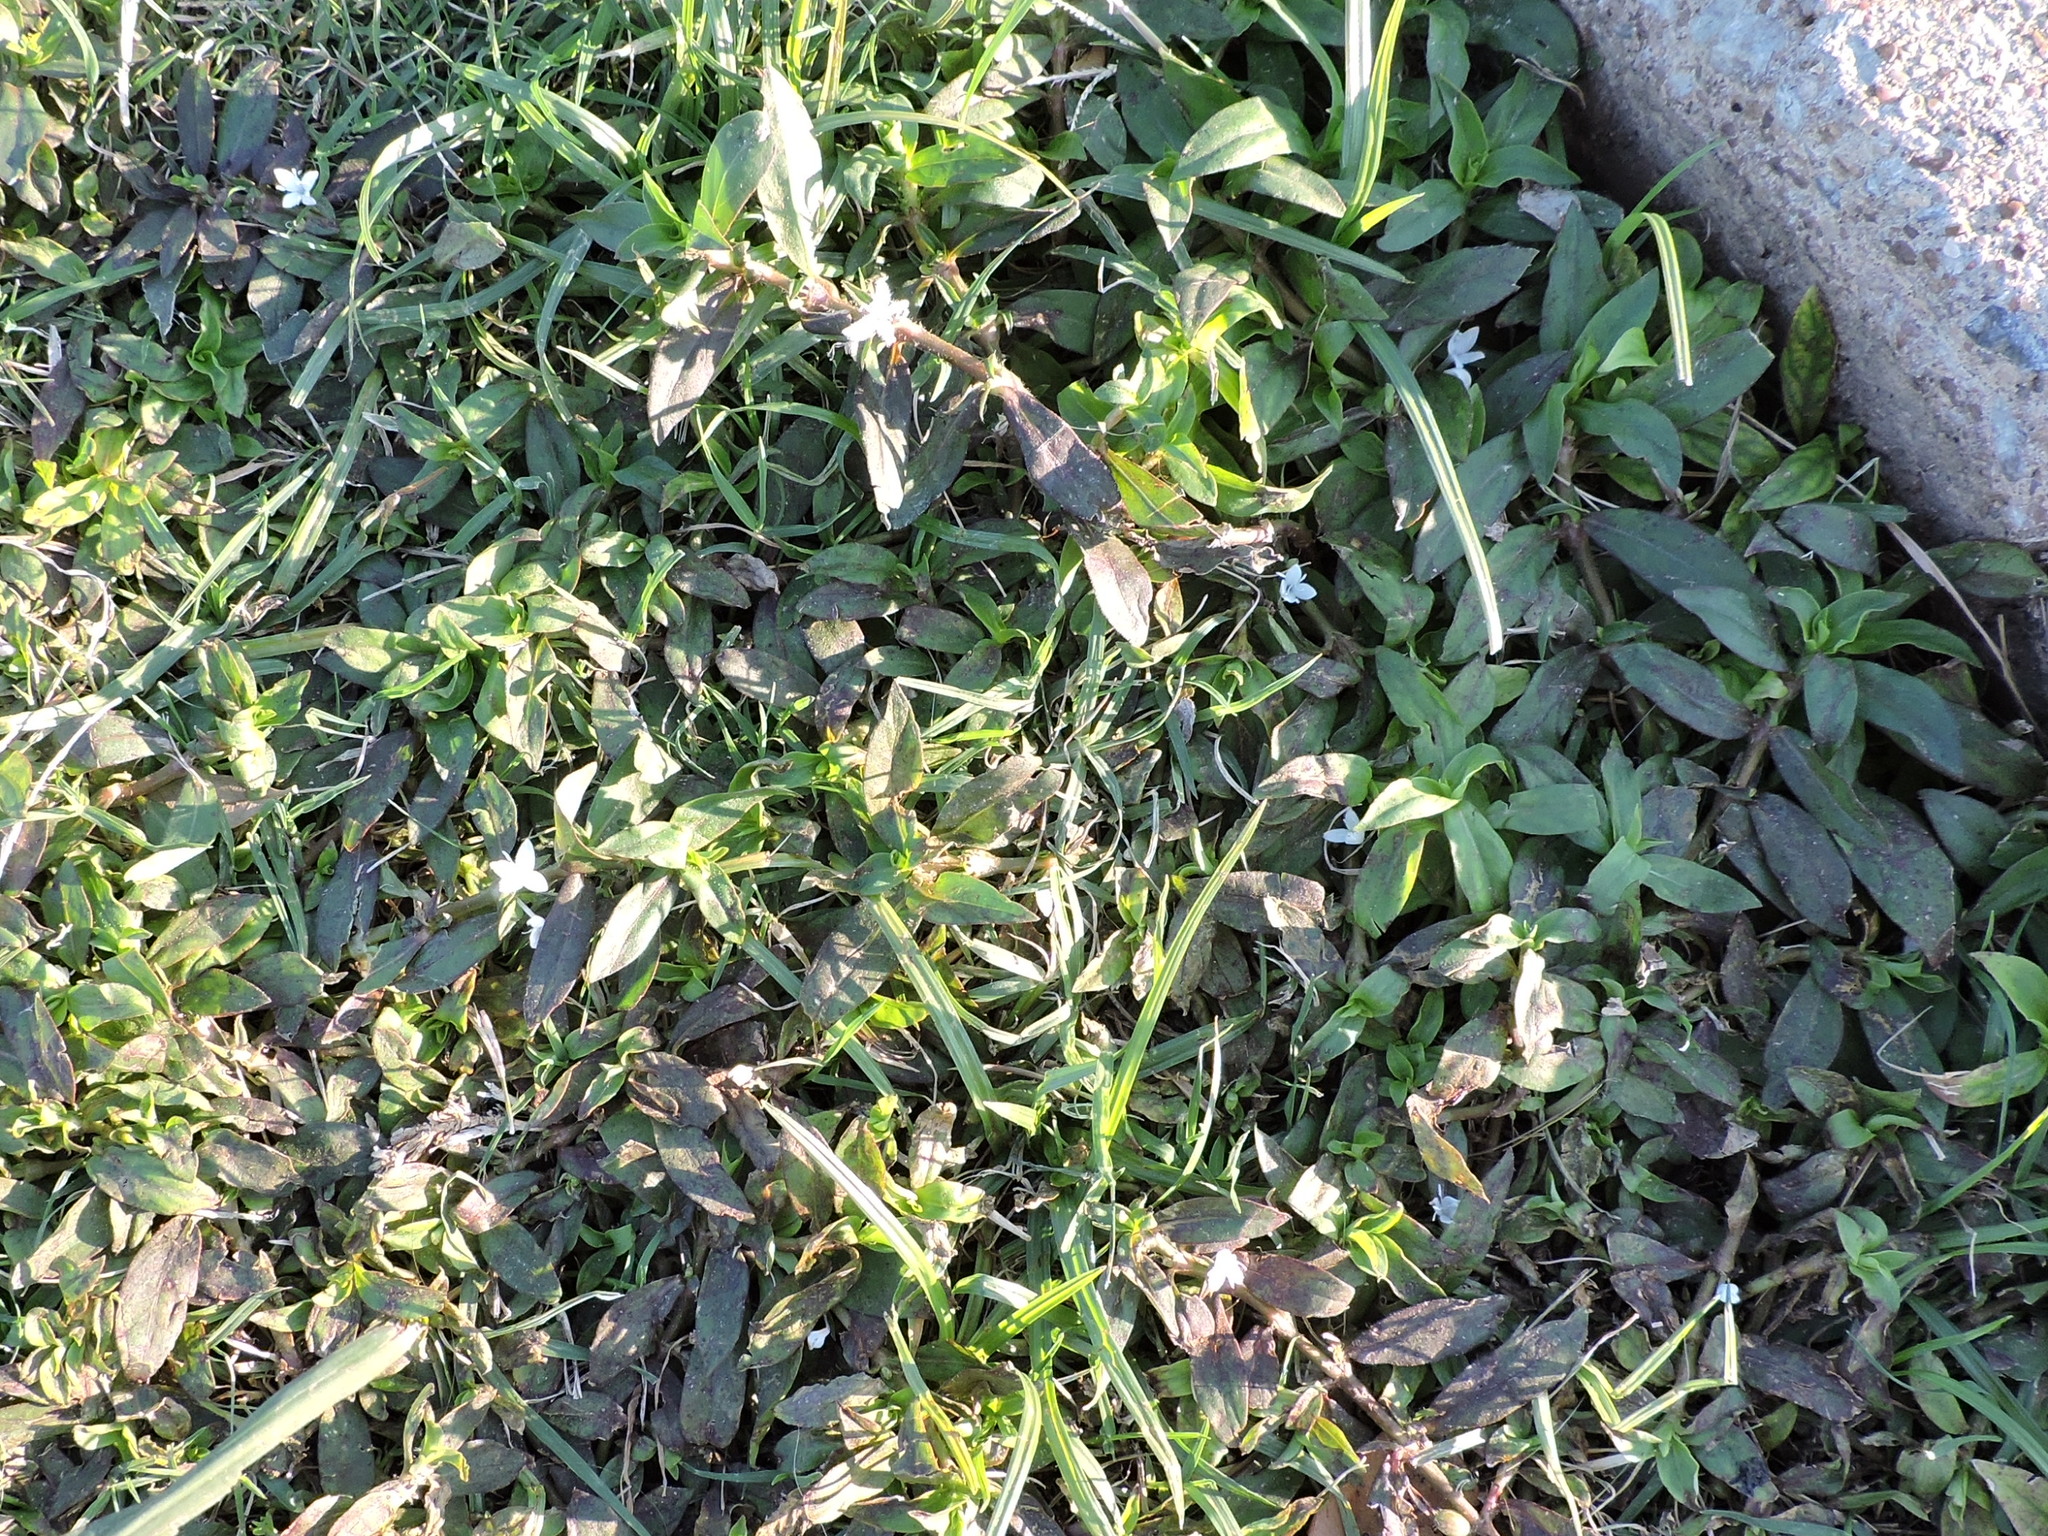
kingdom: Plantae
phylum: Tracheophyta
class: Magnoliopsida
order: Gentianales
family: Rubiaceae
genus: Diodia
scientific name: Diodia virginiana
